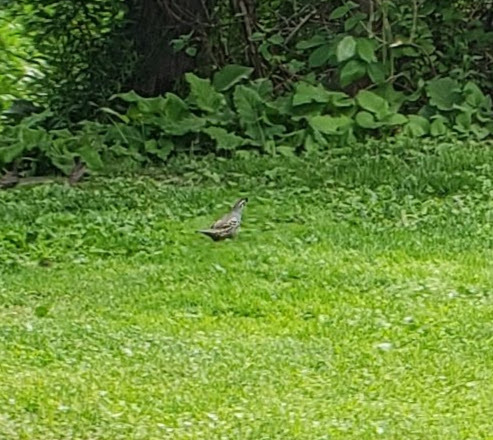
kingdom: Animalia
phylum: Chordata
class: Aves
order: Galliformes
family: Odontophoridae
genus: Callipepla
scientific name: Callipepla californica
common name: California quail
